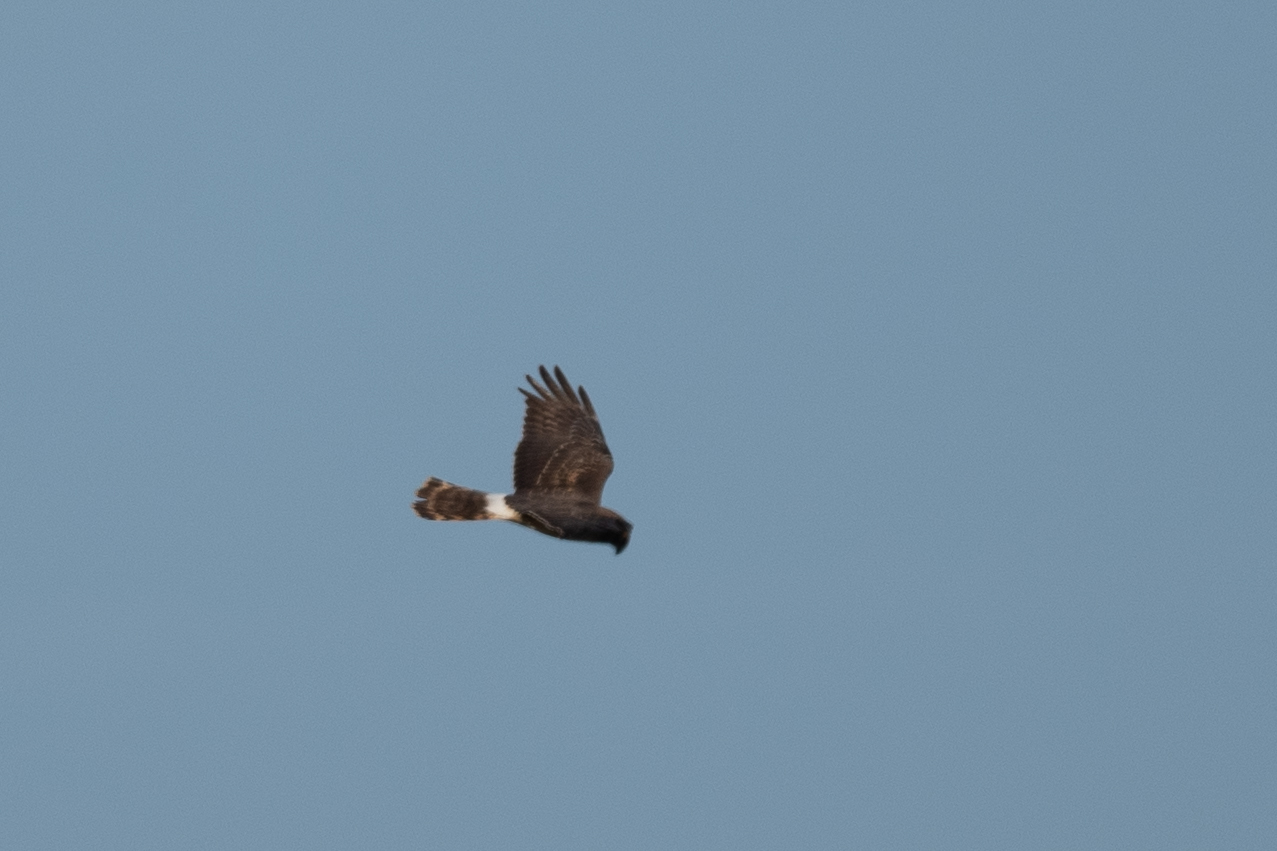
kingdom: Animalia
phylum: Chordata
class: Aves
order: Accipitriformes
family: Accipitridae
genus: Circus
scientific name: Circus cyaneus
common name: Hen harrier
